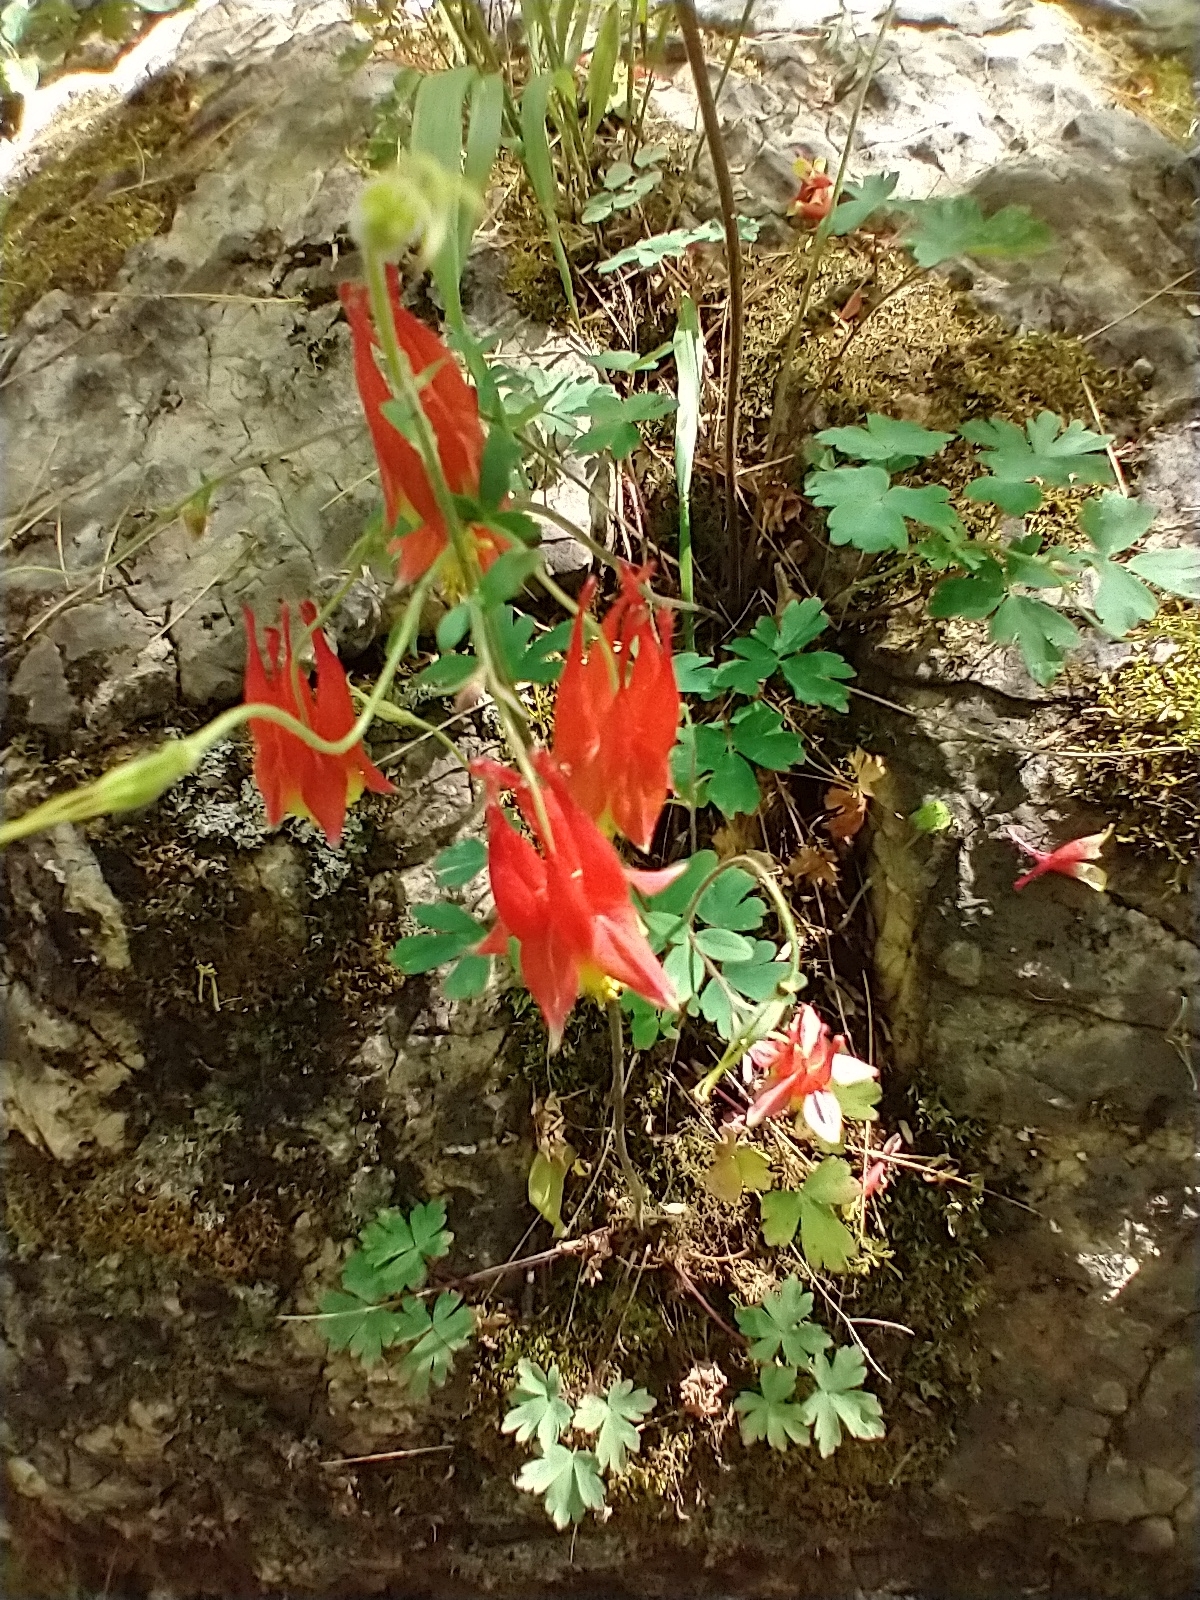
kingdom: Plantae
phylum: Tracheophyta
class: Magnoliopsida
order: Ranunculales
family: Ranunculaceae
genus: Aquilegia
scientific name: Aquilegia canadensis
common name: American columbine
